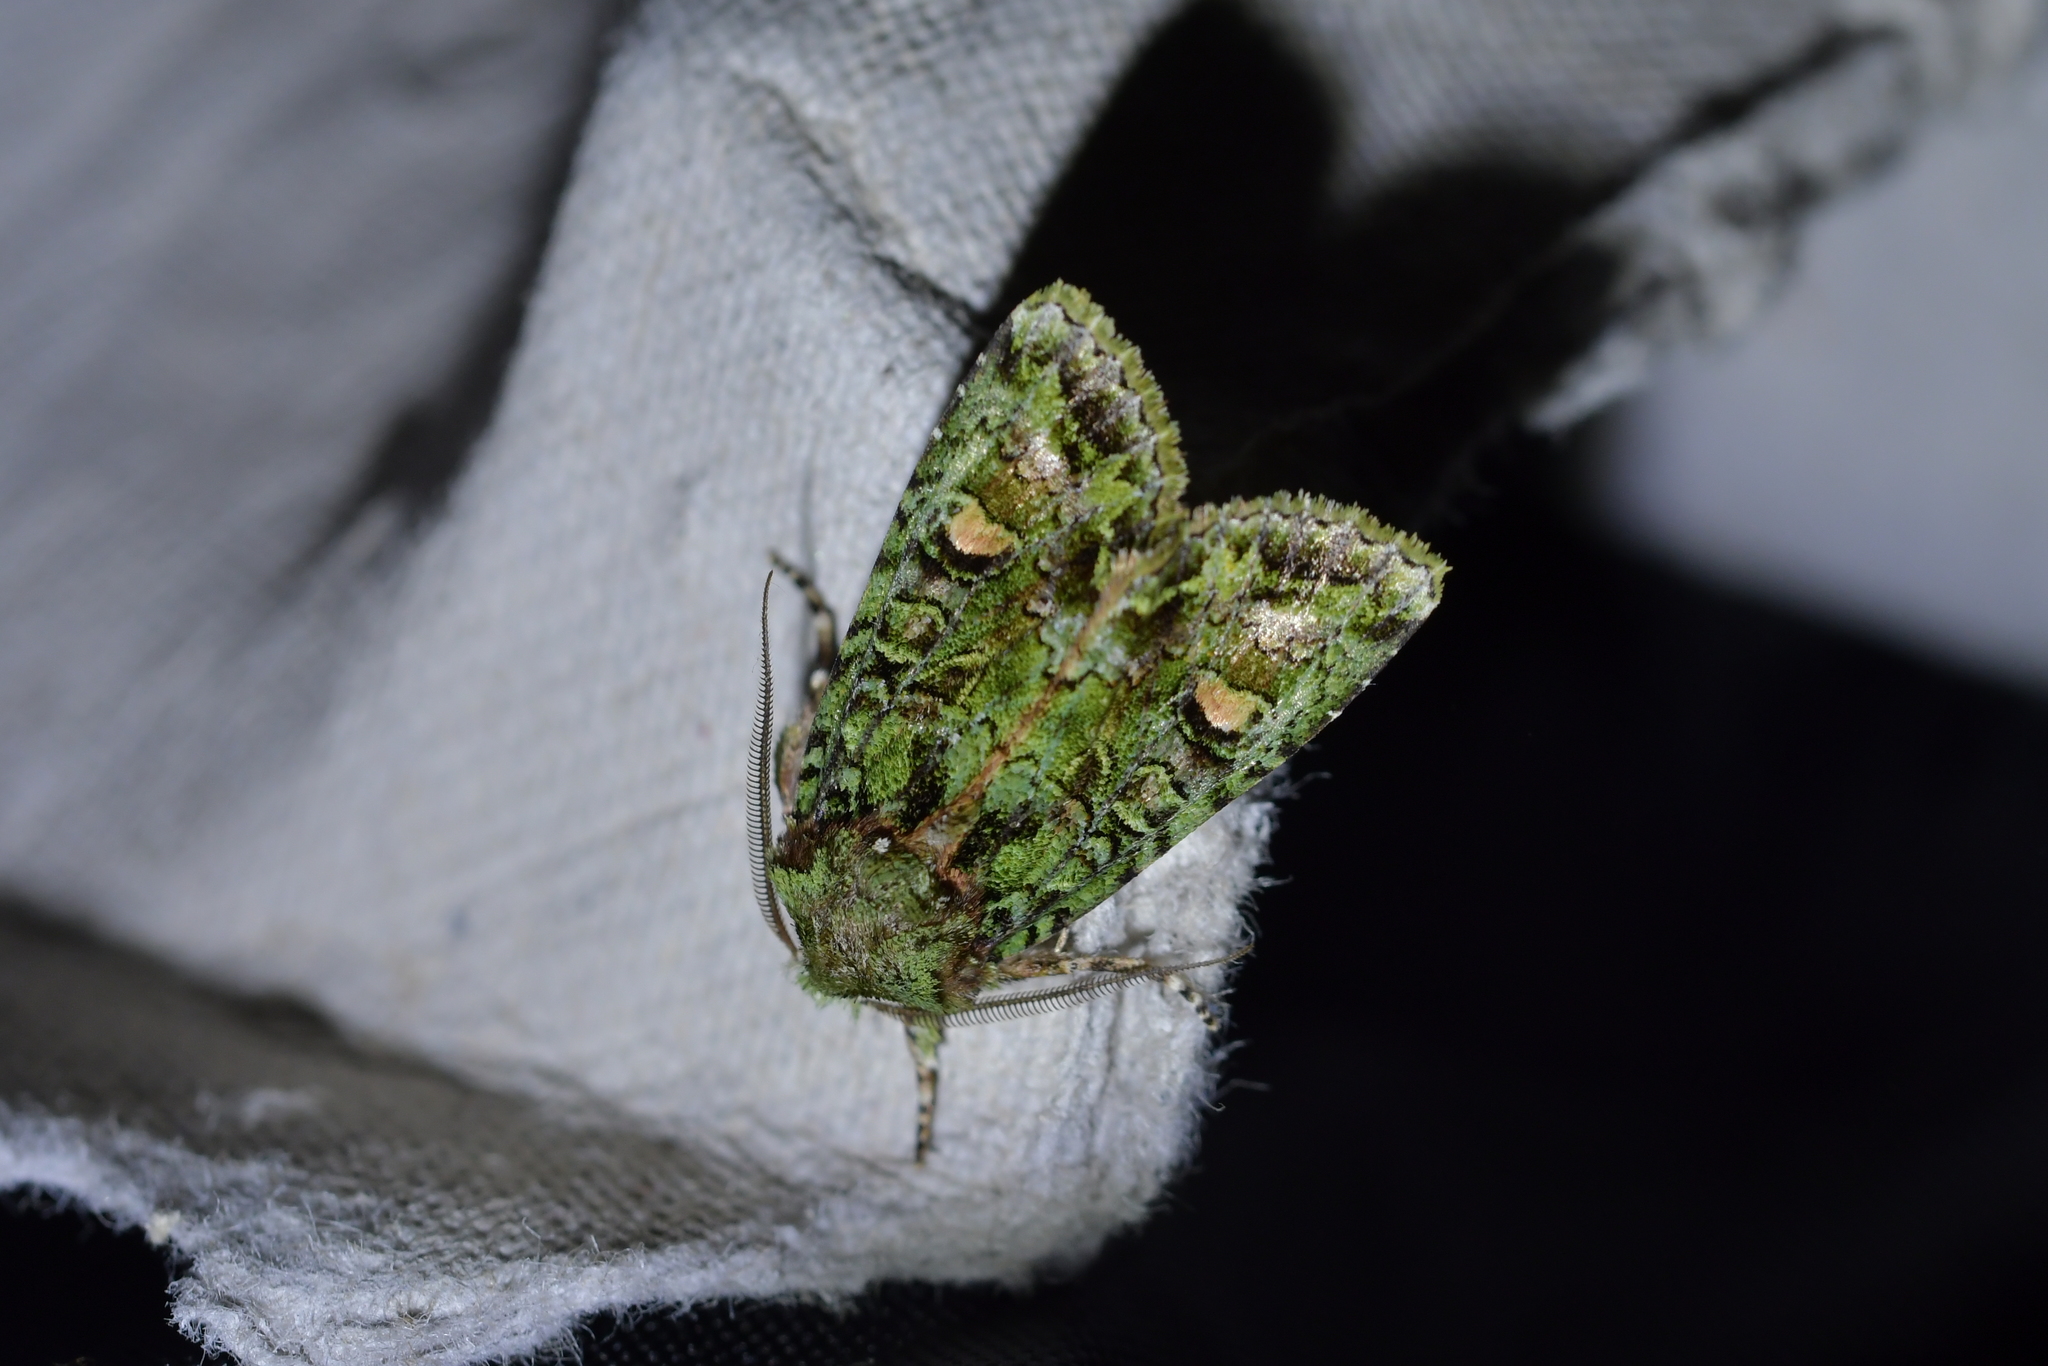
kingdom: Animalia
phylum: Arthropoda
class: Insecta
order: Lepidoptera
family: Noctuidae
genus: Ichneutica
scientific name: Ichneutica
